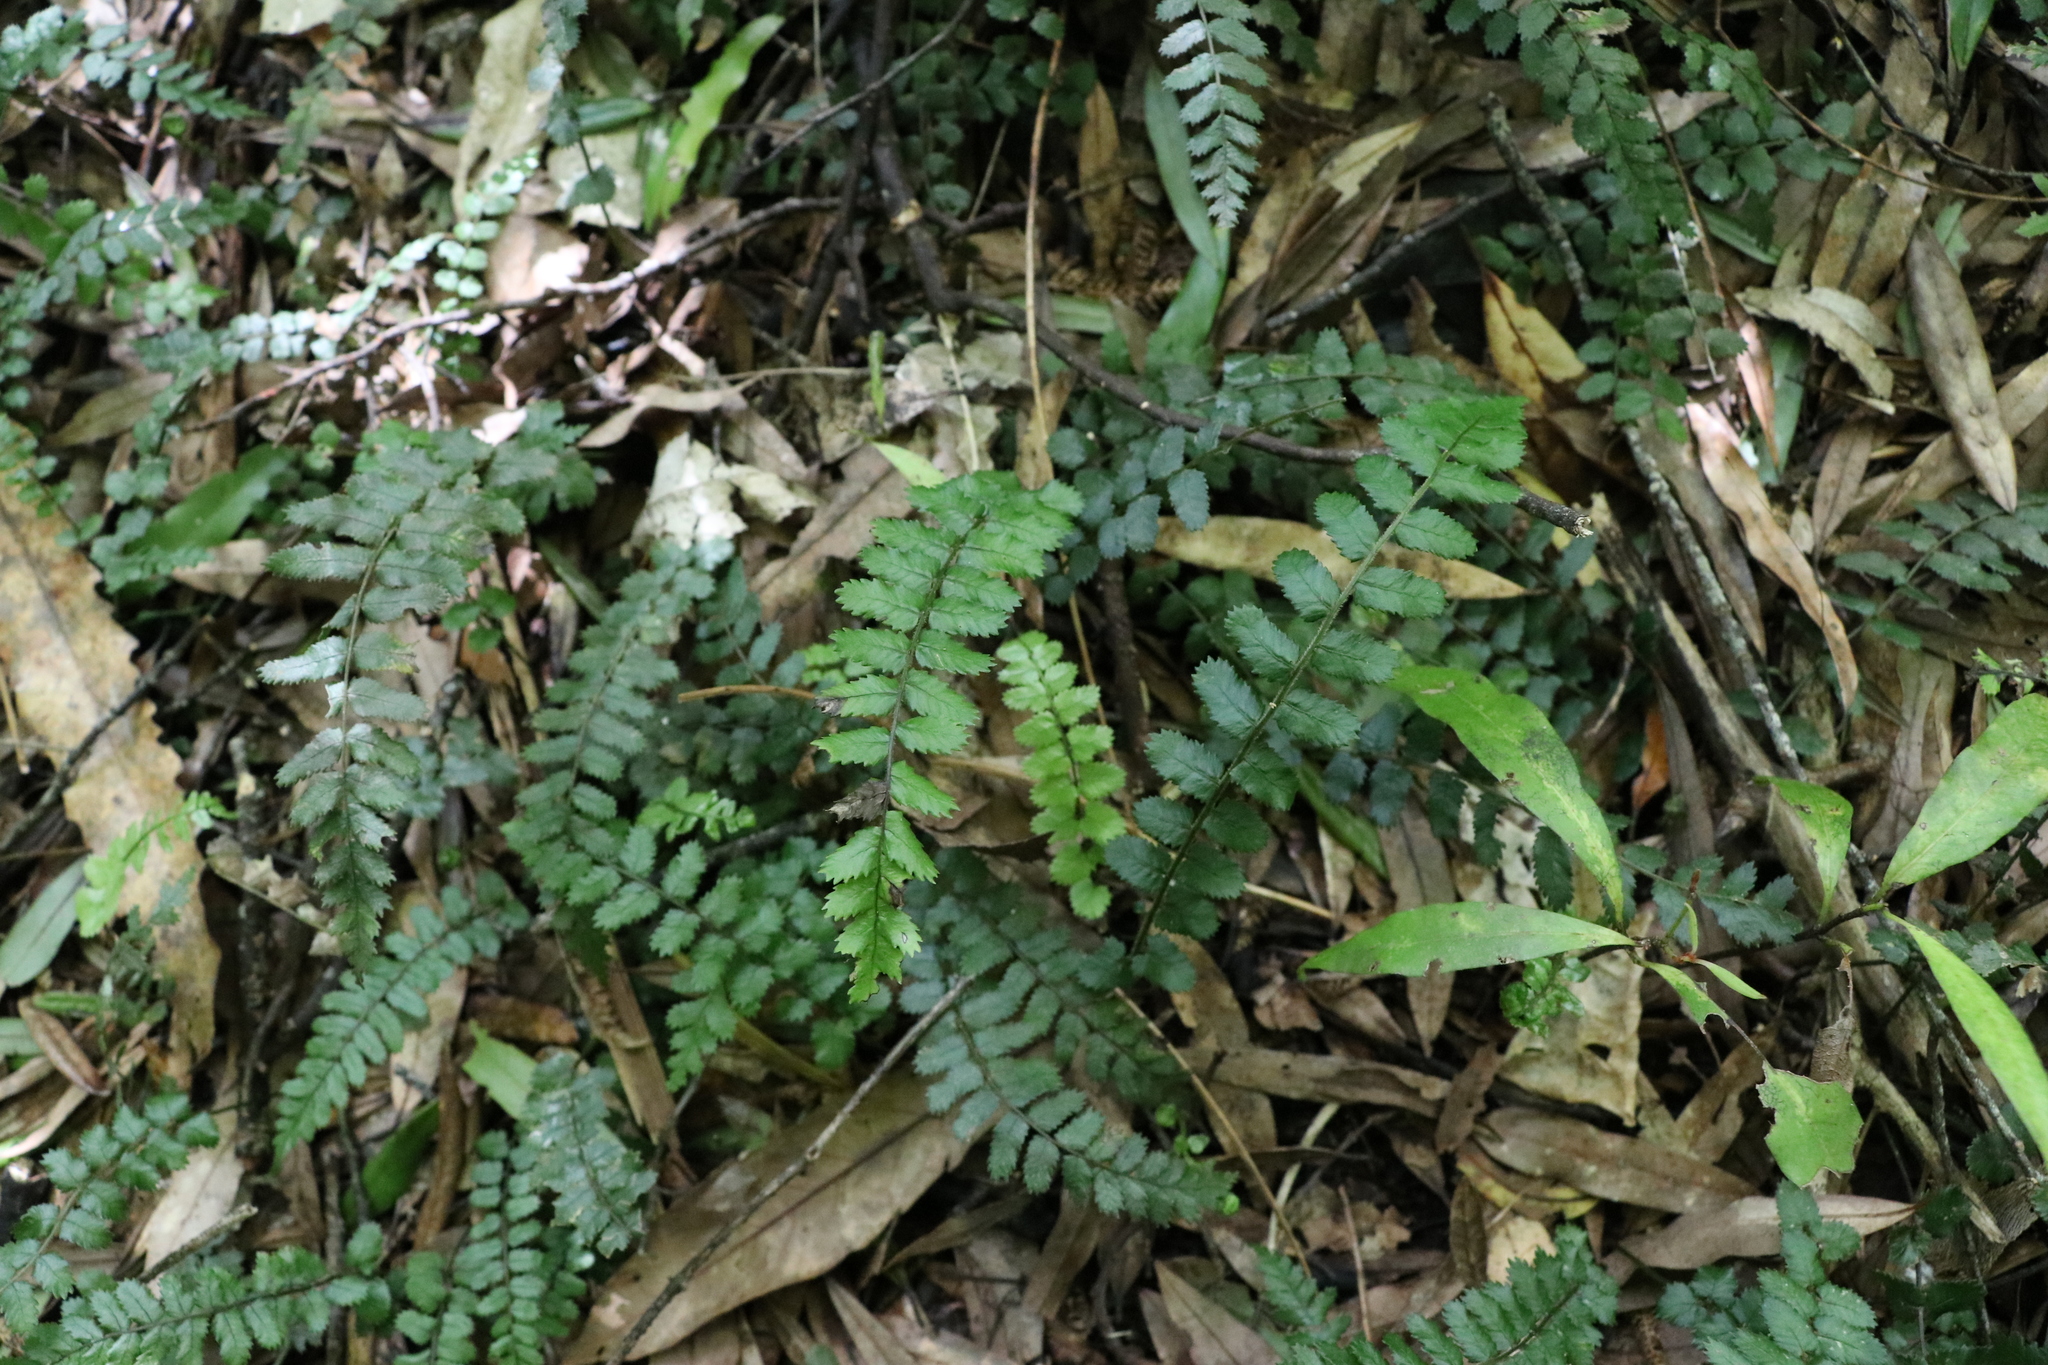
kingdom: Plantae
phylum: Tracheophyta
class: Polypodiopsida
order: Polypodiales
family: Blechnaceae
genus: Icarus
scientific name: Icarus filiformis
